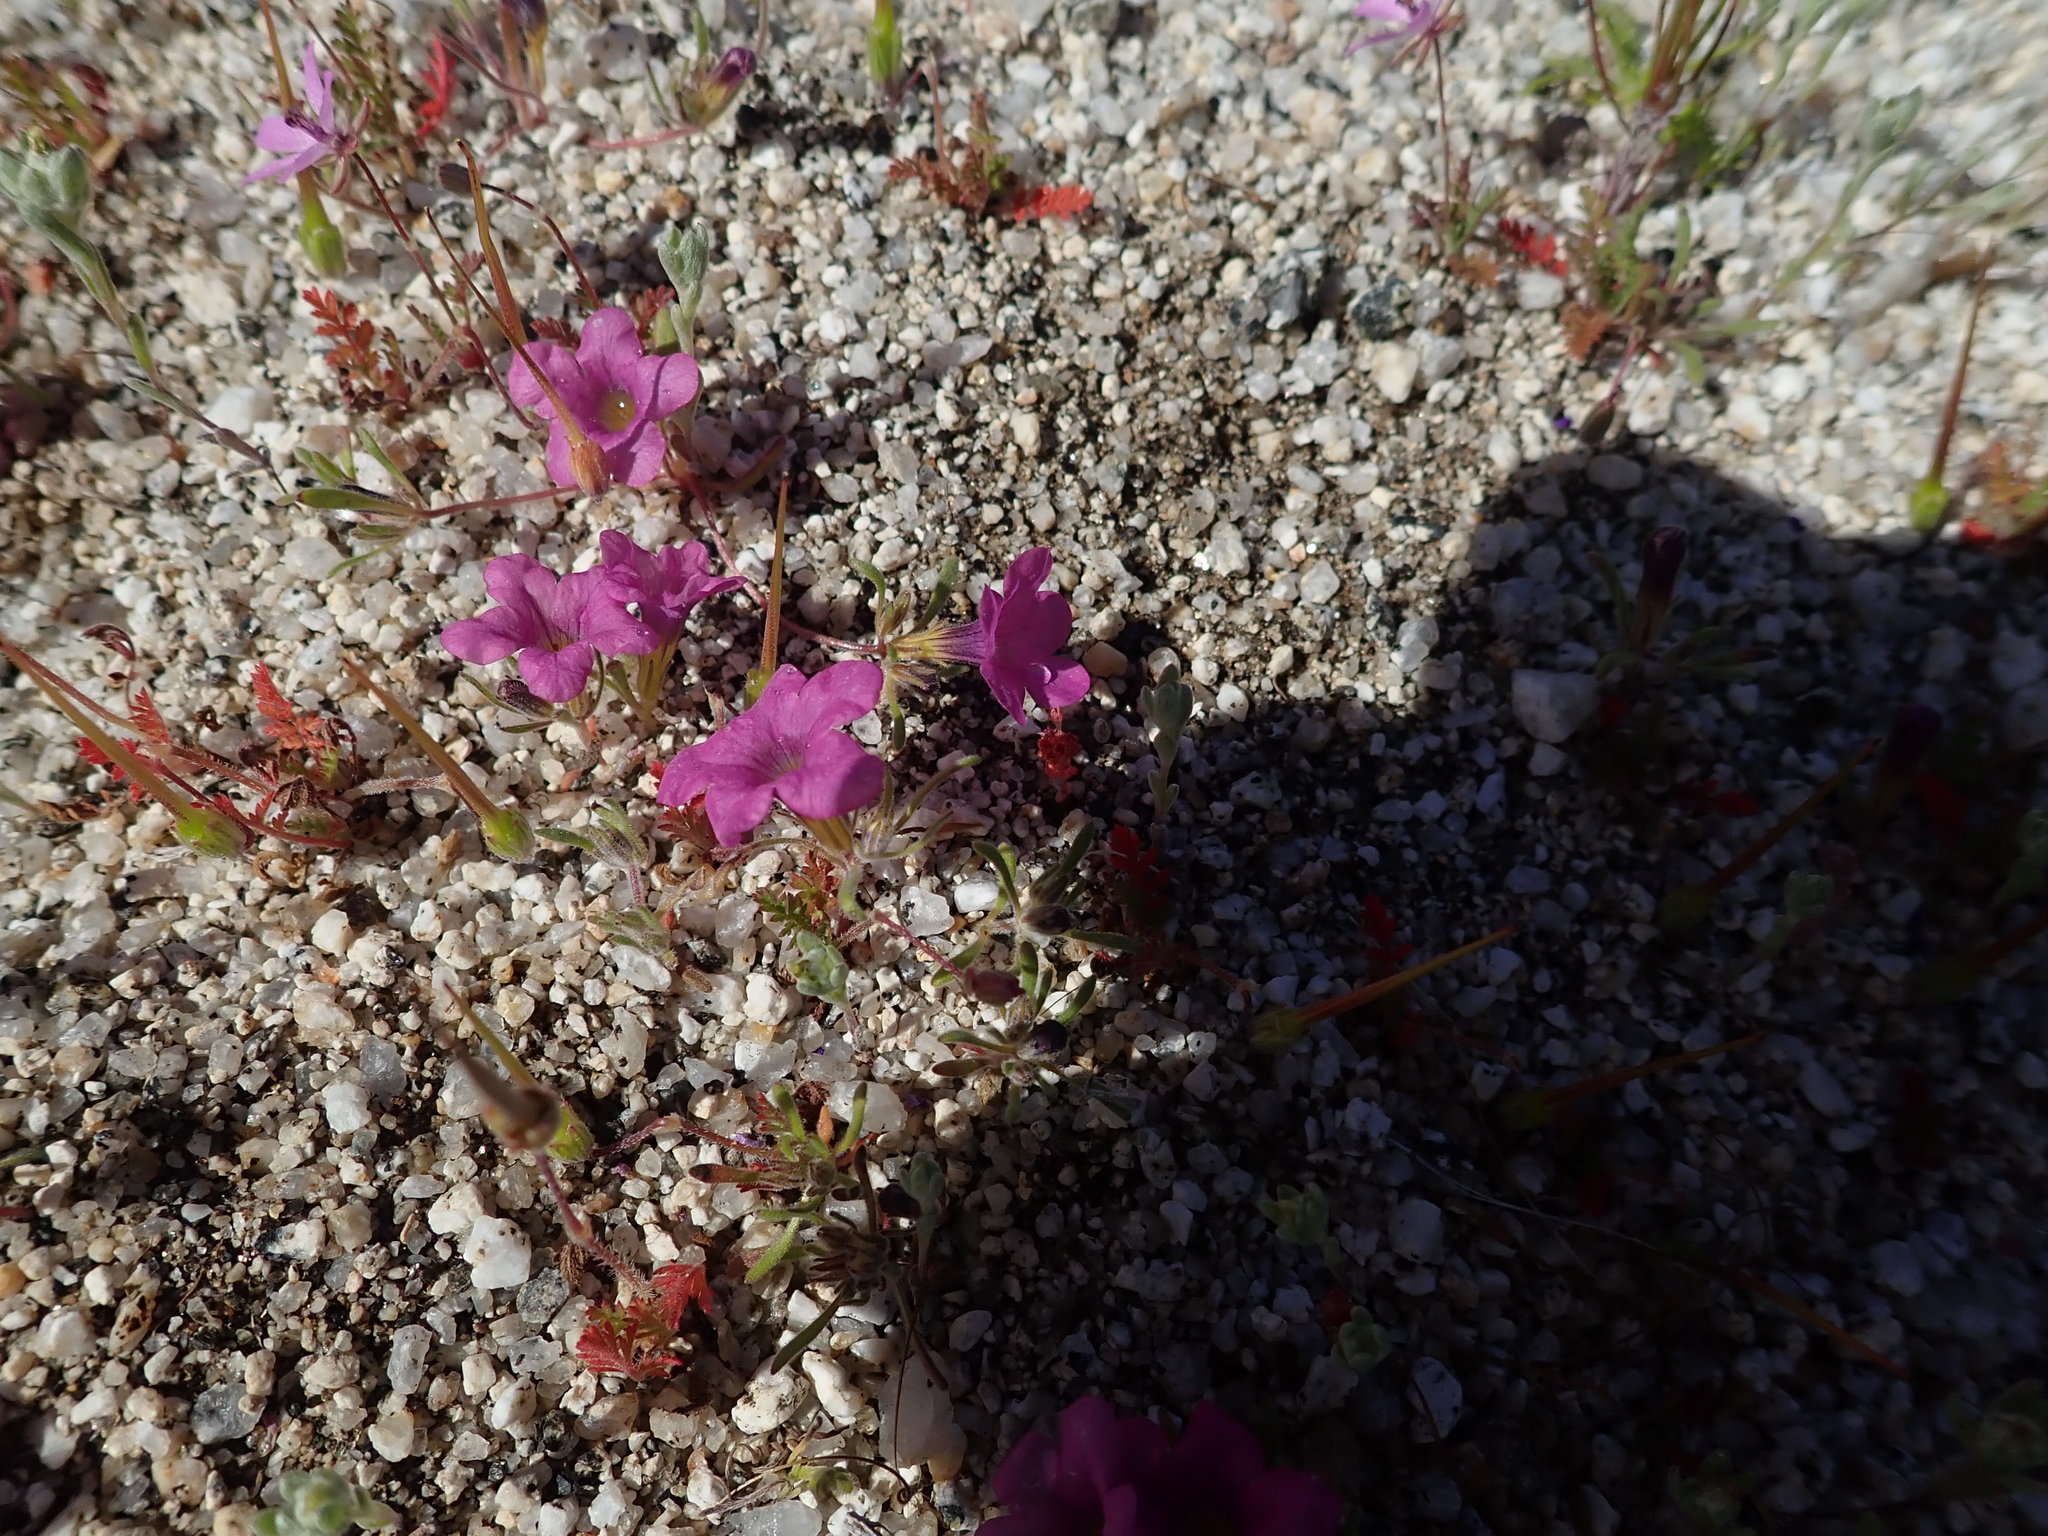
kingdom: Plantae
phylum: Tracheophyta
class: Magnoliopsida
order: Boraginales
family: Namaceae
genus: Nama
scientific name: Nama demissa
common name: Leafy nama
